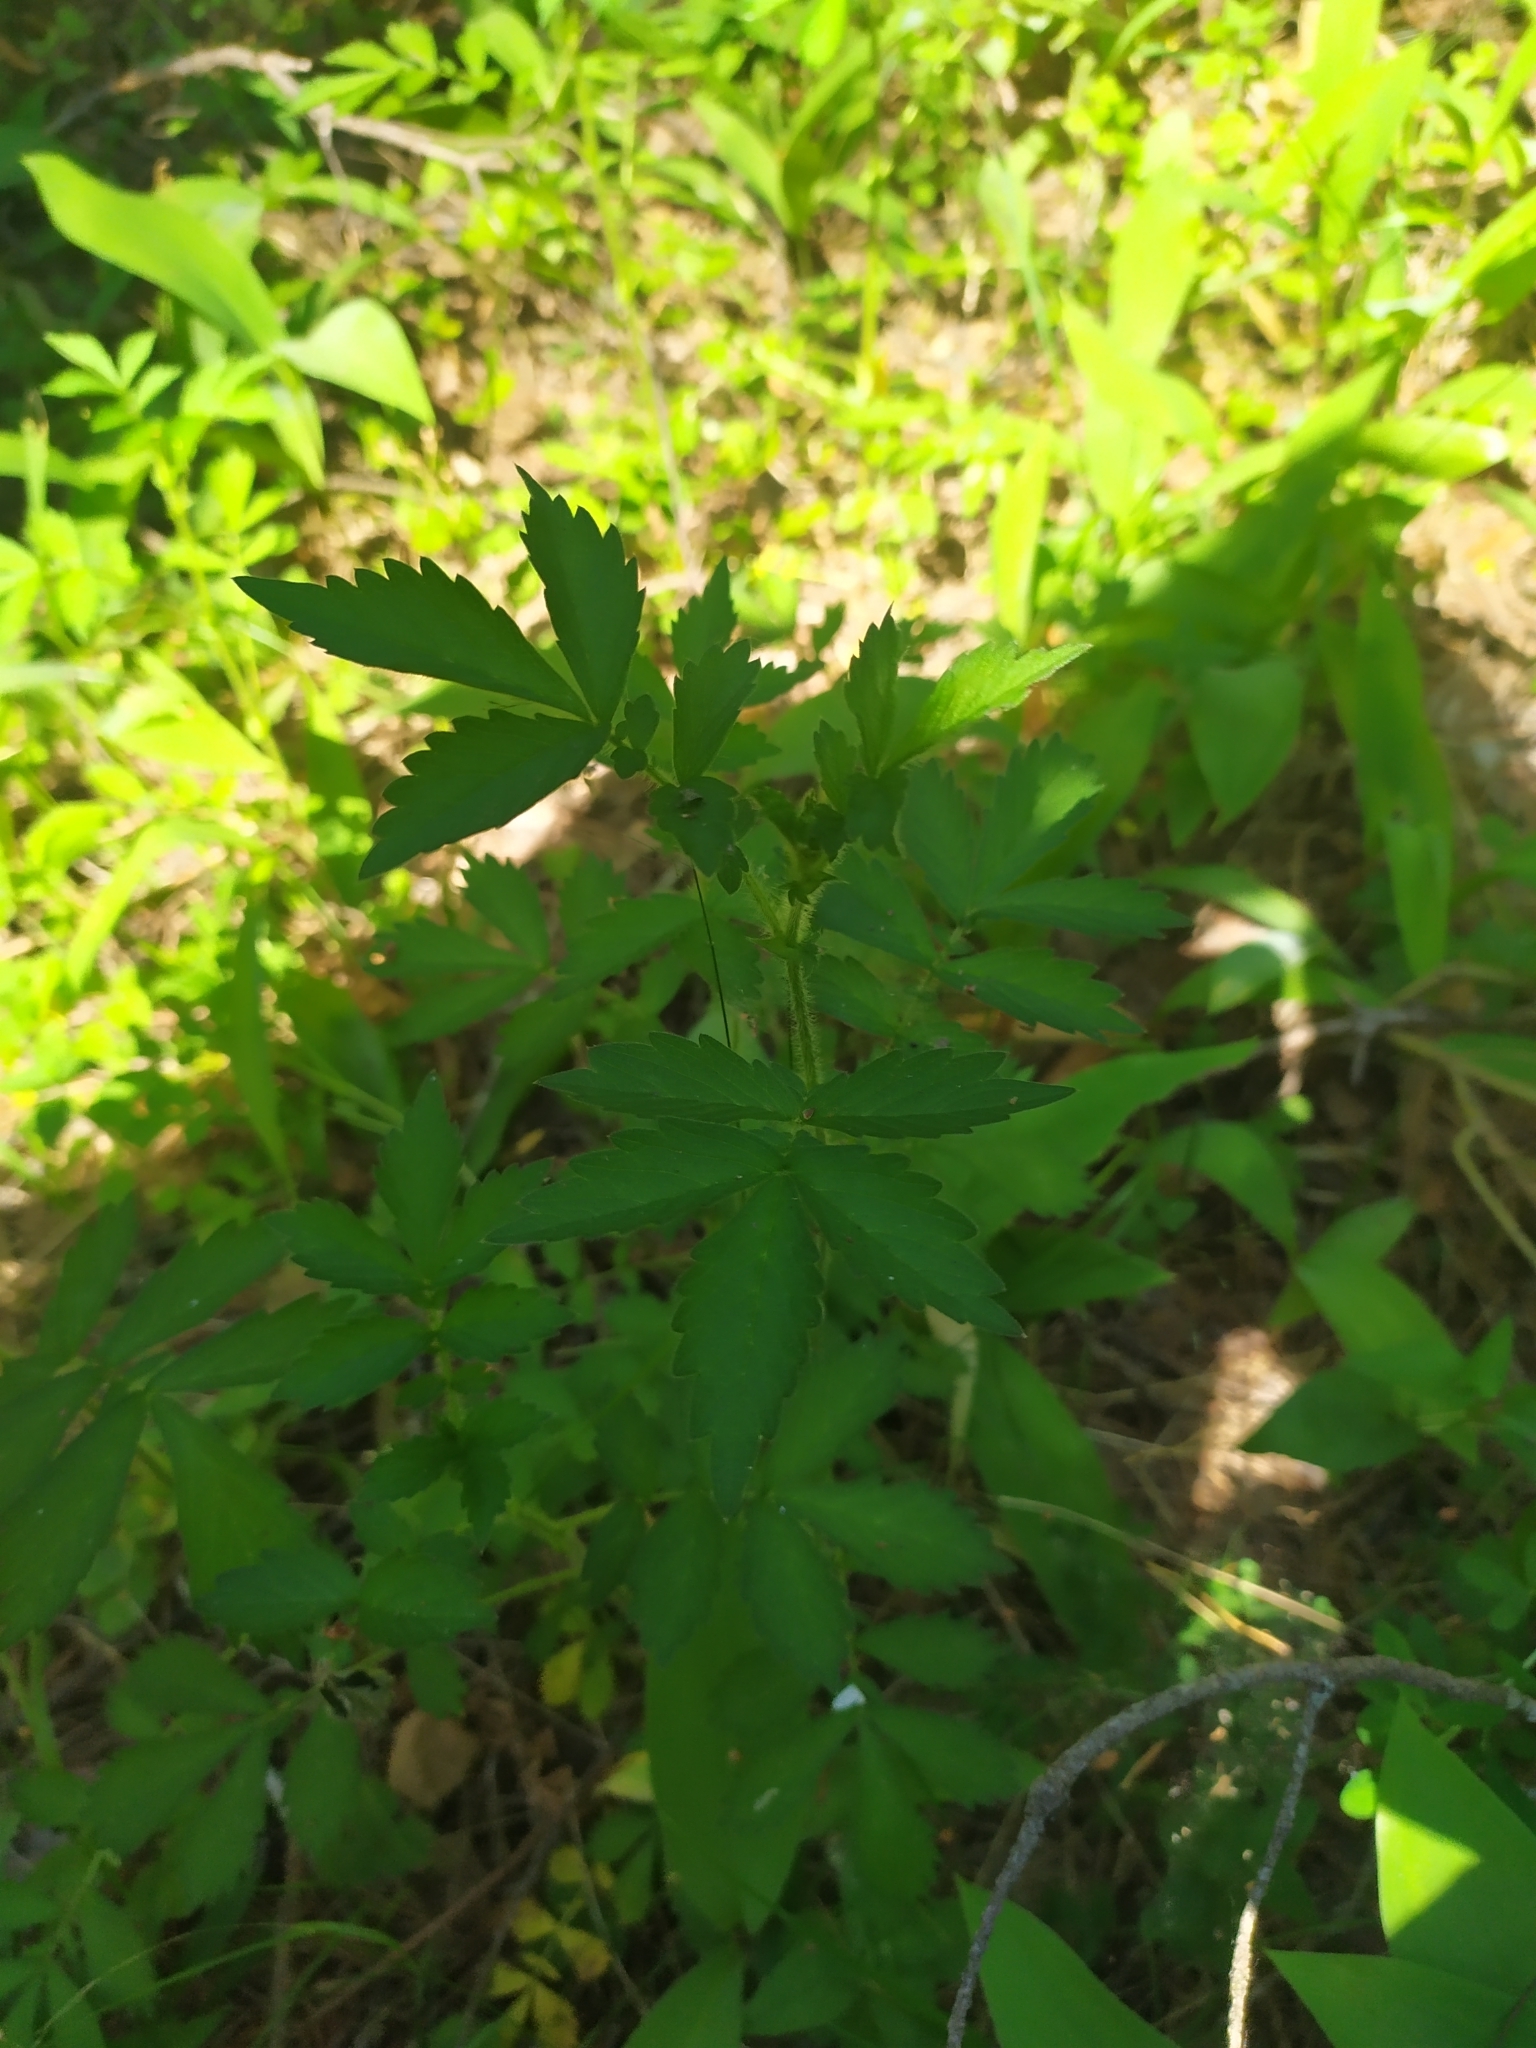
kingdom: Plantae
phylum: Tracheophyta
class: Magnoliopsida
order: Rosales
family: Rosaceae
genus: Agrimonia
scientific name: Agrimonia pilosa
